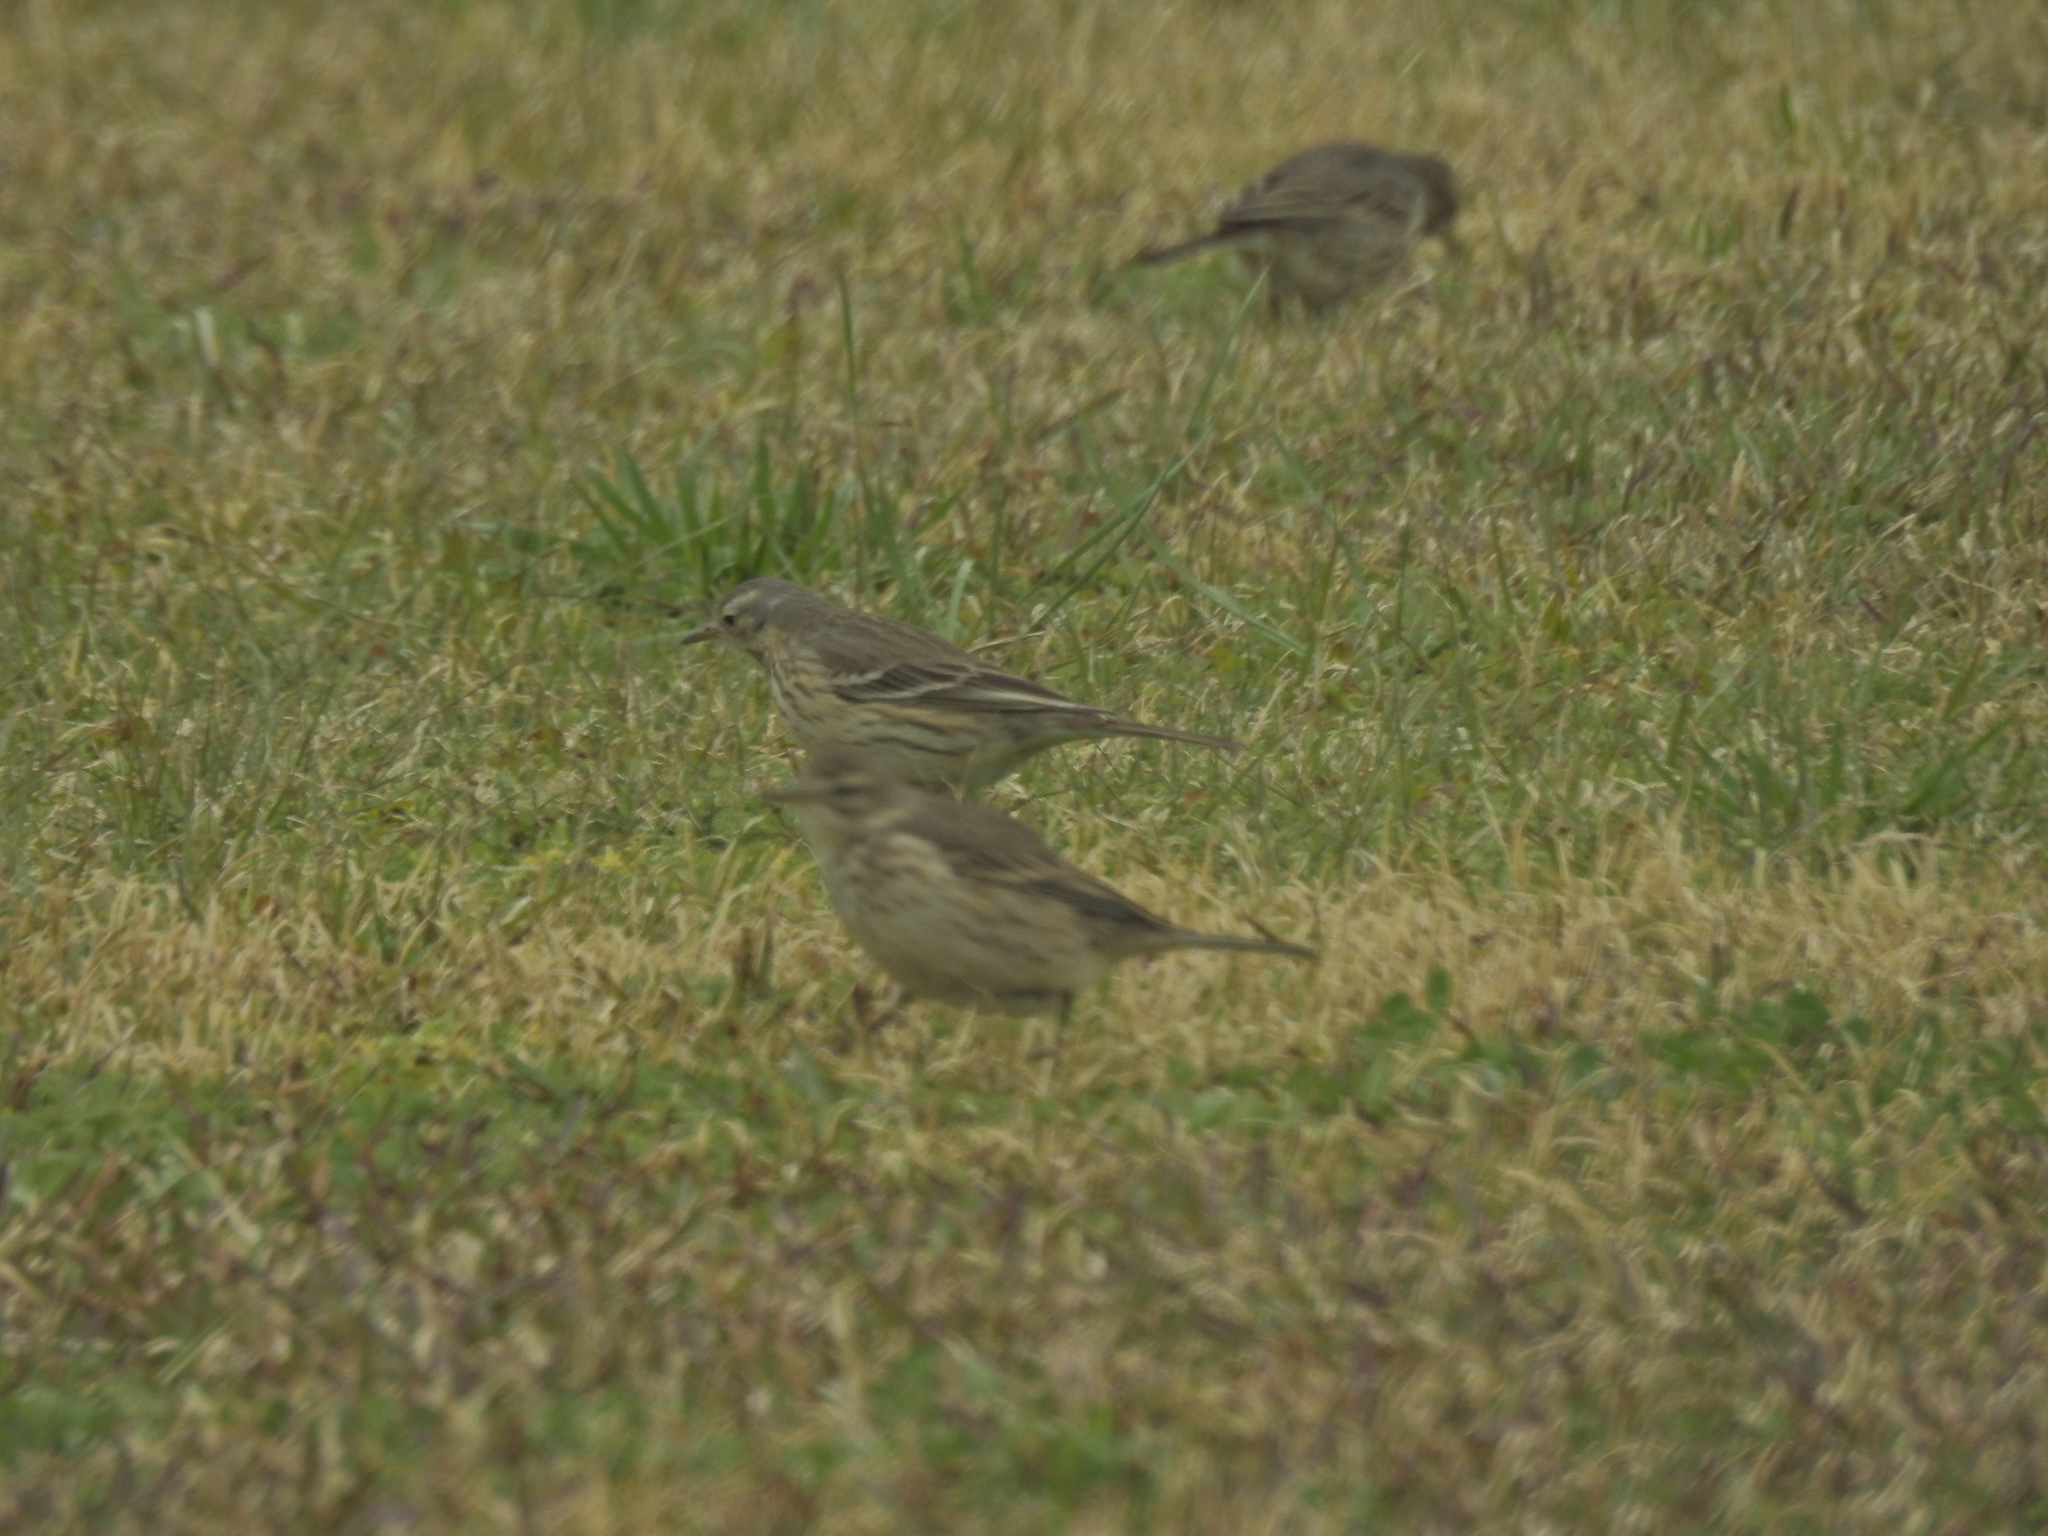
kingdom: Animalia
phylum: Chordata
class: Aves
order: Passeriformes
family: Motacillidae
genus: Anthus
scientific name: Anthus rubescens
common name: Buff-bellied pipit
